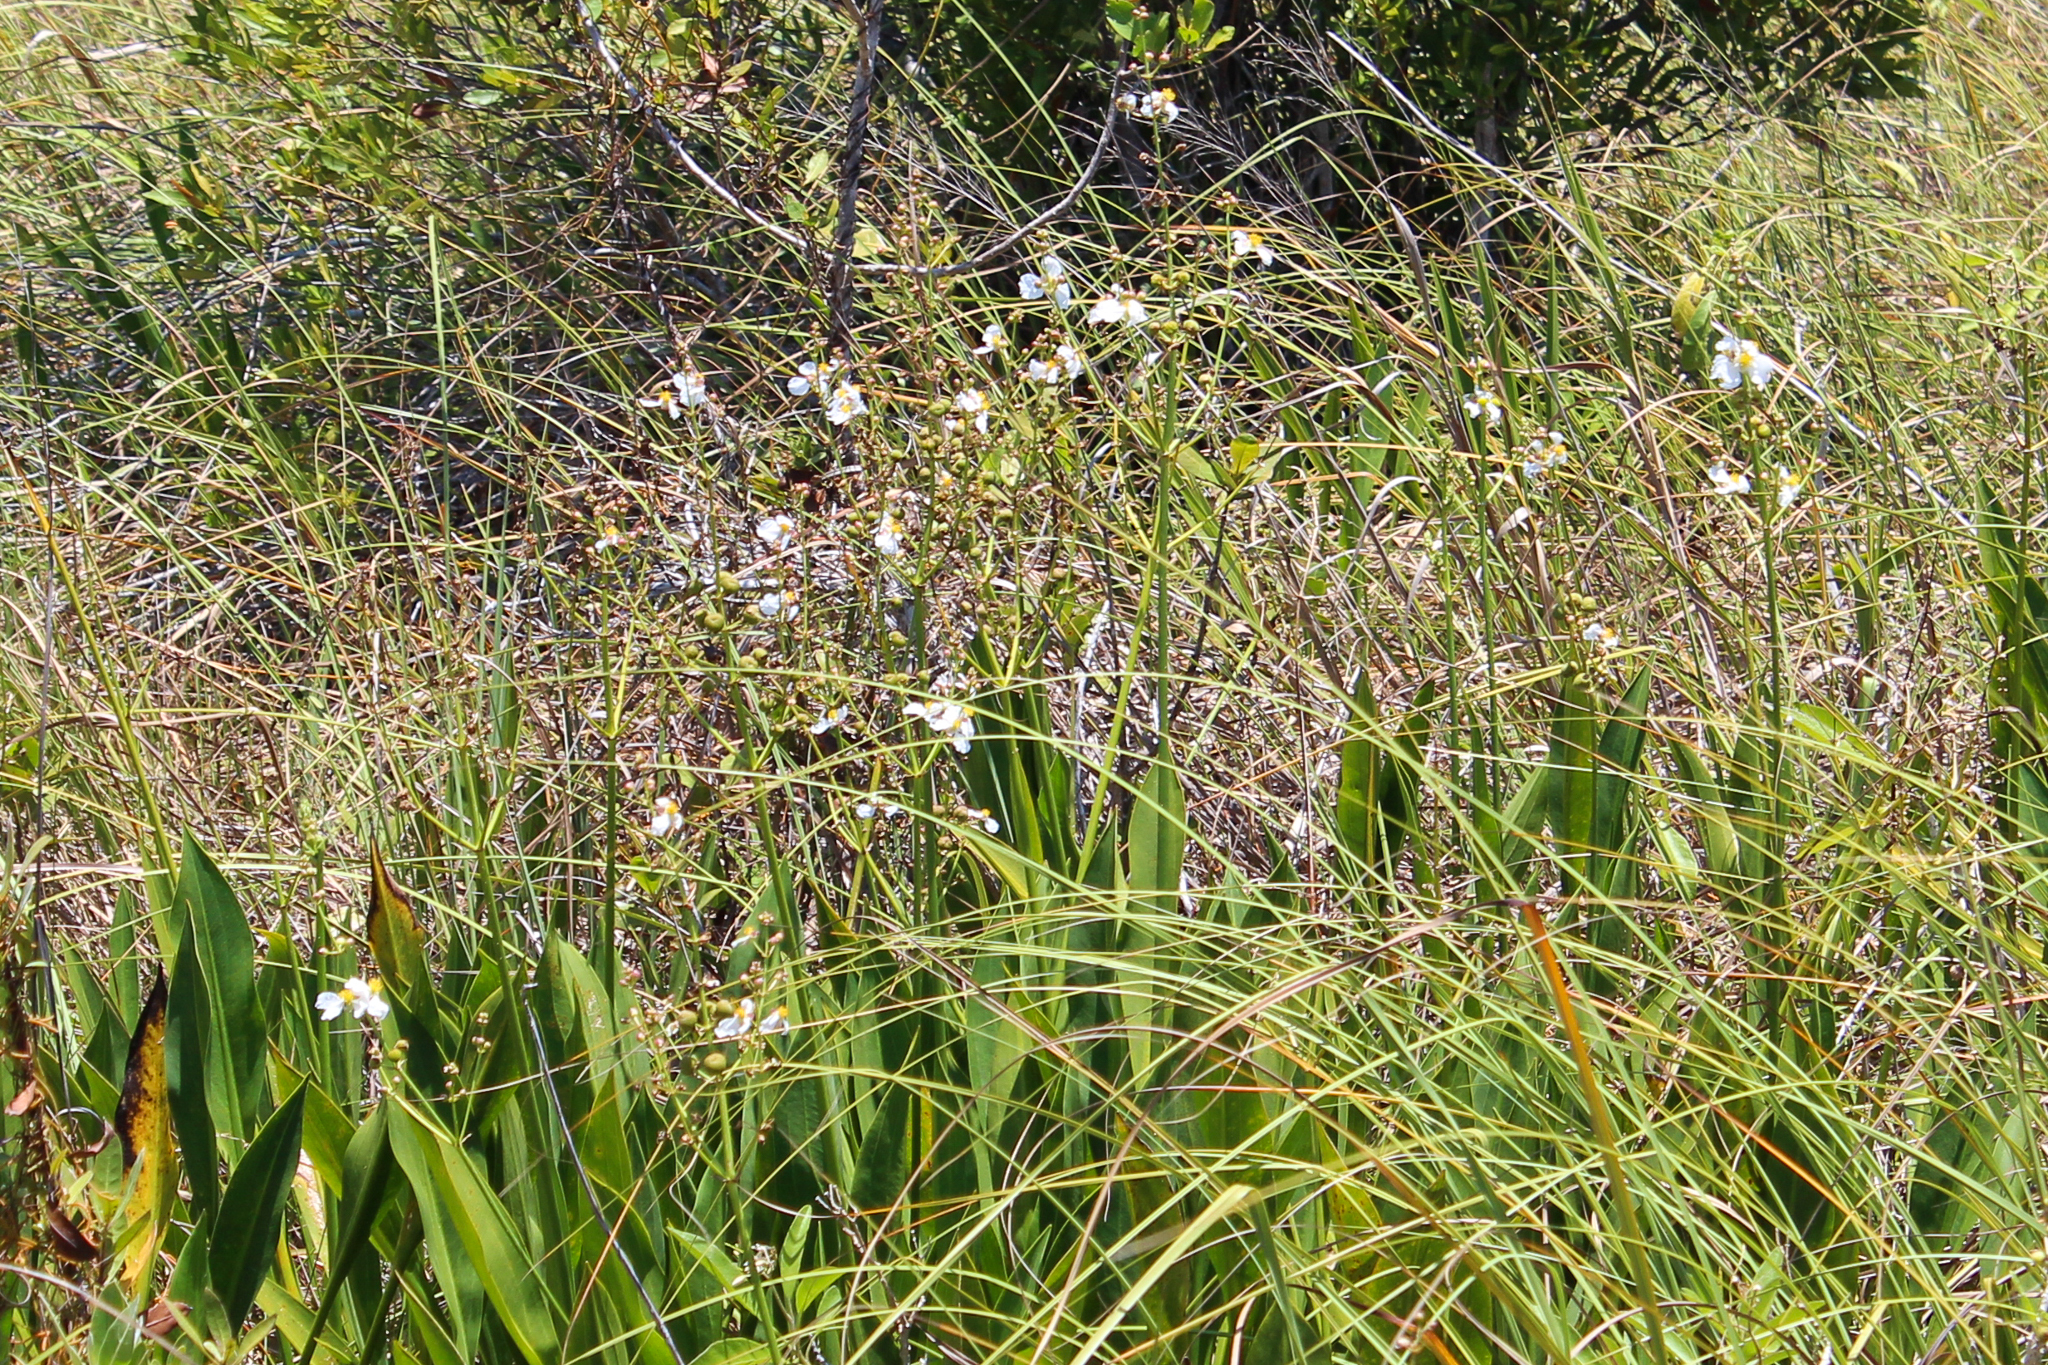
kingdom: Plantae
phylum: Tracheophyta
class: Liliopsida
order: Alismatales
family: Alismataceae
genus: Sagittaria
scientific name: Sagittaria lancifolia
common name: Lance-leaf arrowhead
